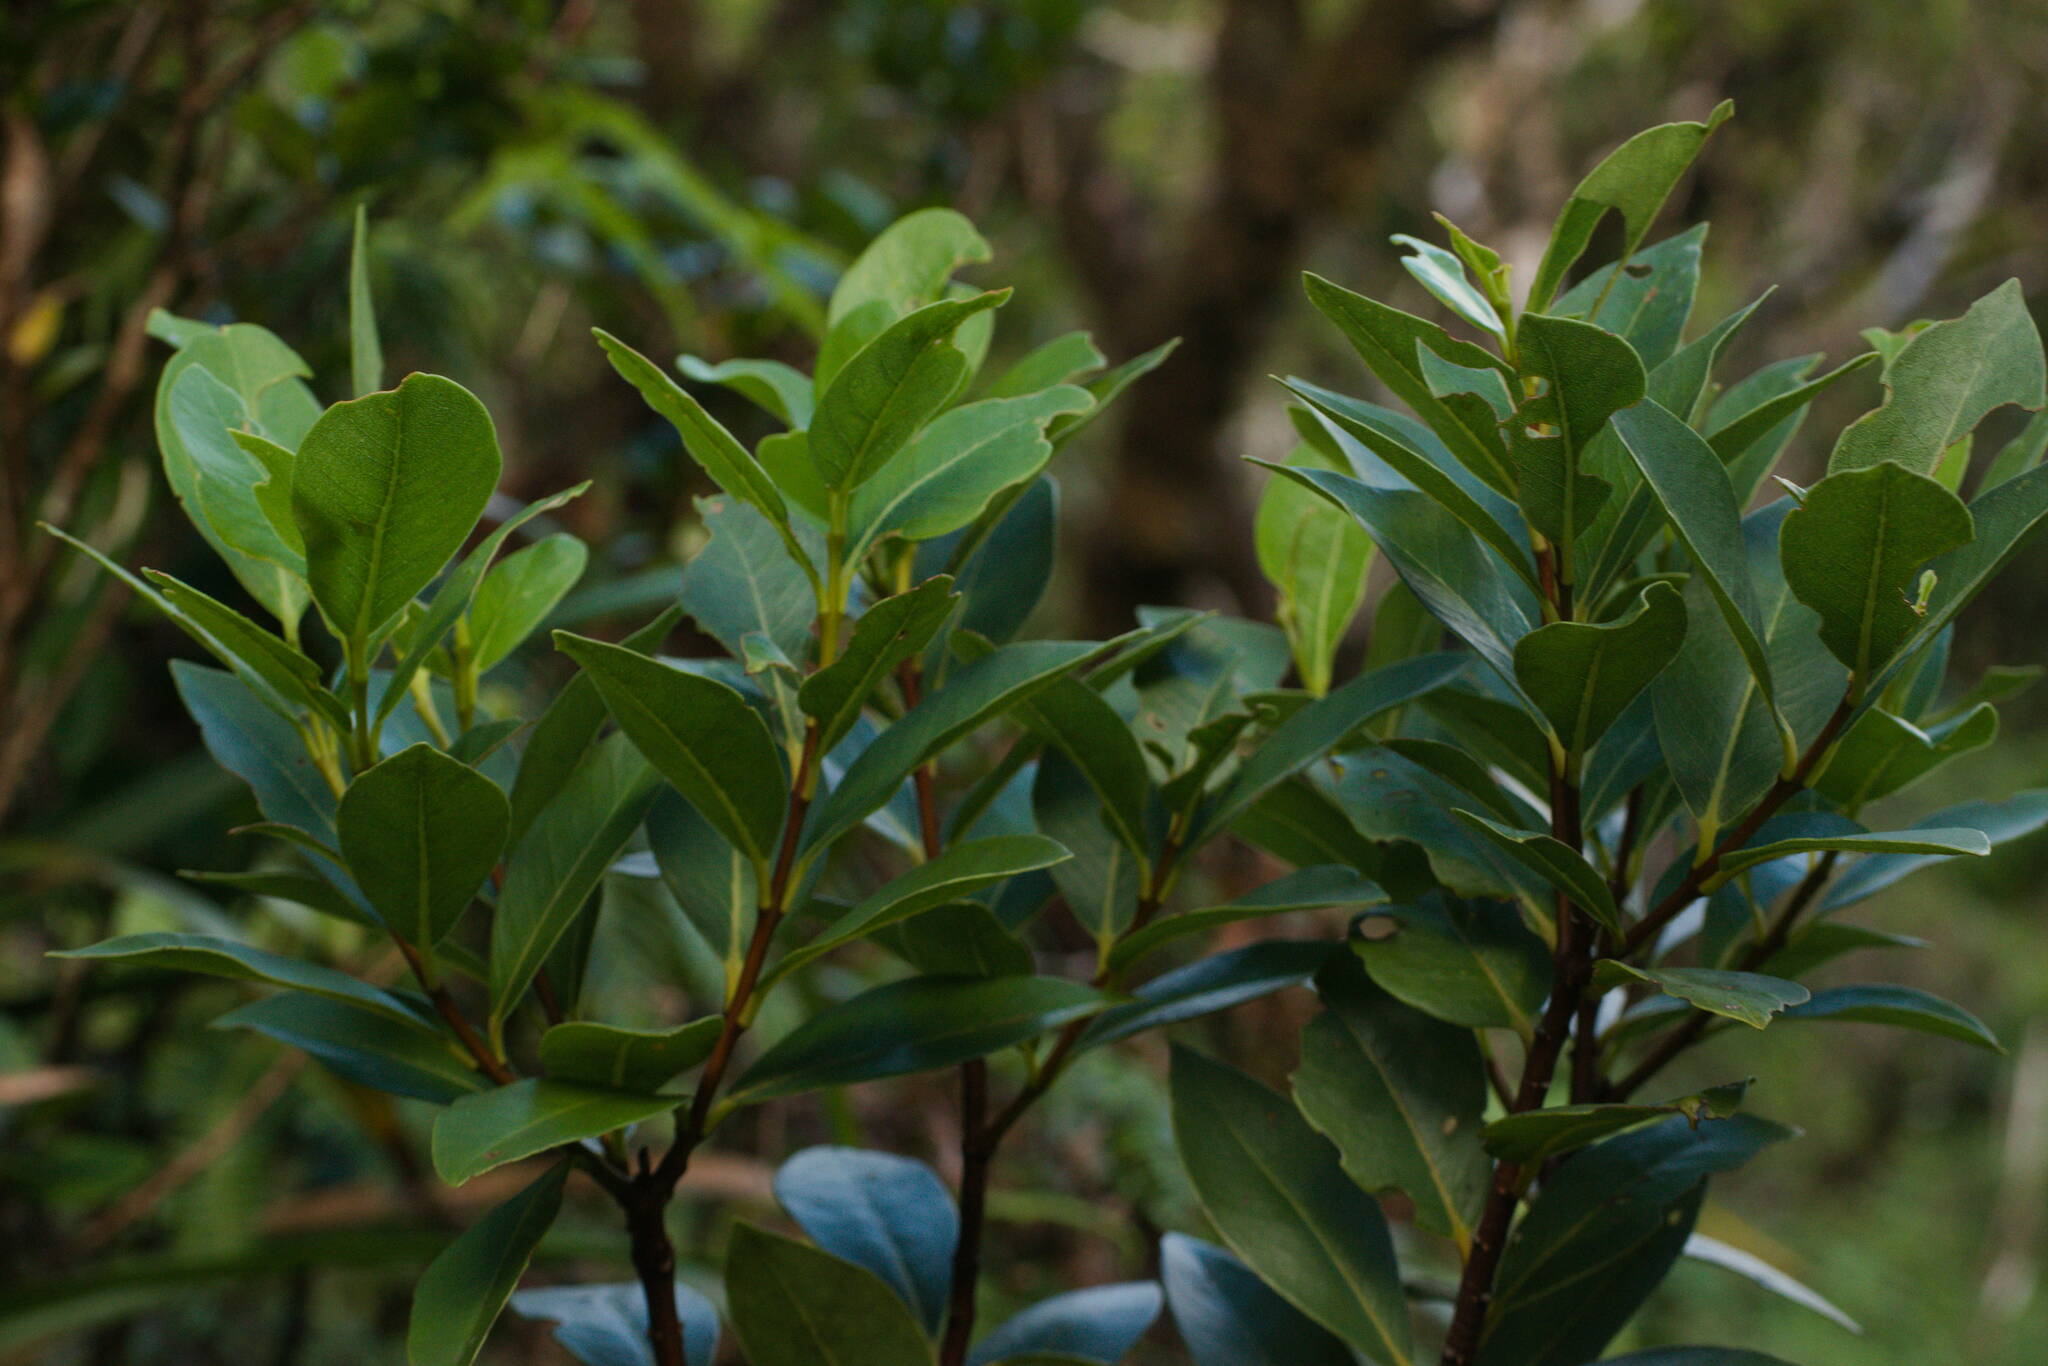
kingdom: Plantae
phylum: Tracheophyta
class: Magnoliopsida
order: Malvales
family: Thymelaeaceae
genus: Wikstroemia
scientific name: Wikstroemia oahuensis
